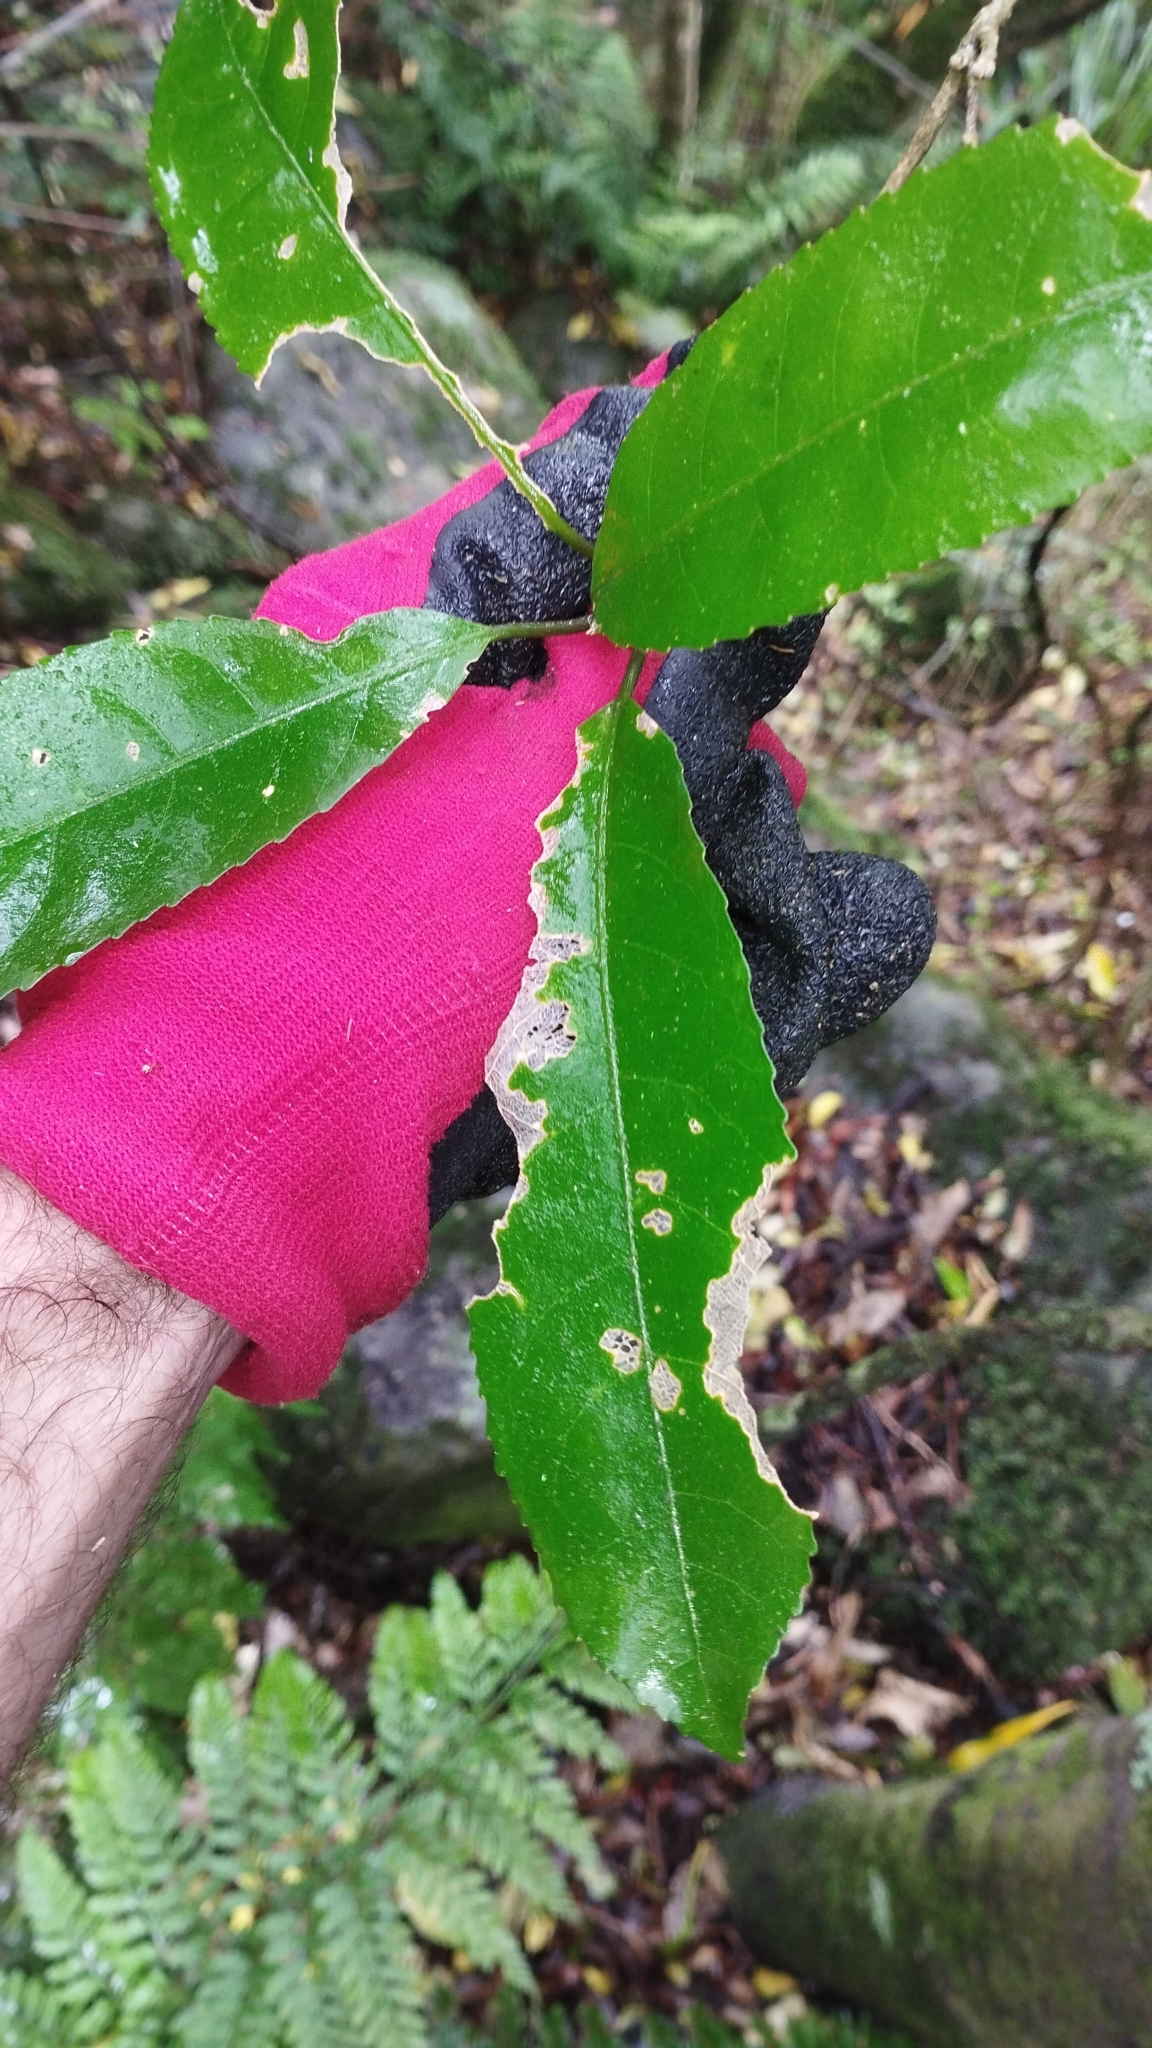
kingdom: Plantae
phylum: Tracheophyta
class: Magnoliopsida
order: Malpighiales
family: Violaceae
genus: Melicytus
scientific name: Melicytus ramiflorus
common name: Mahoe
